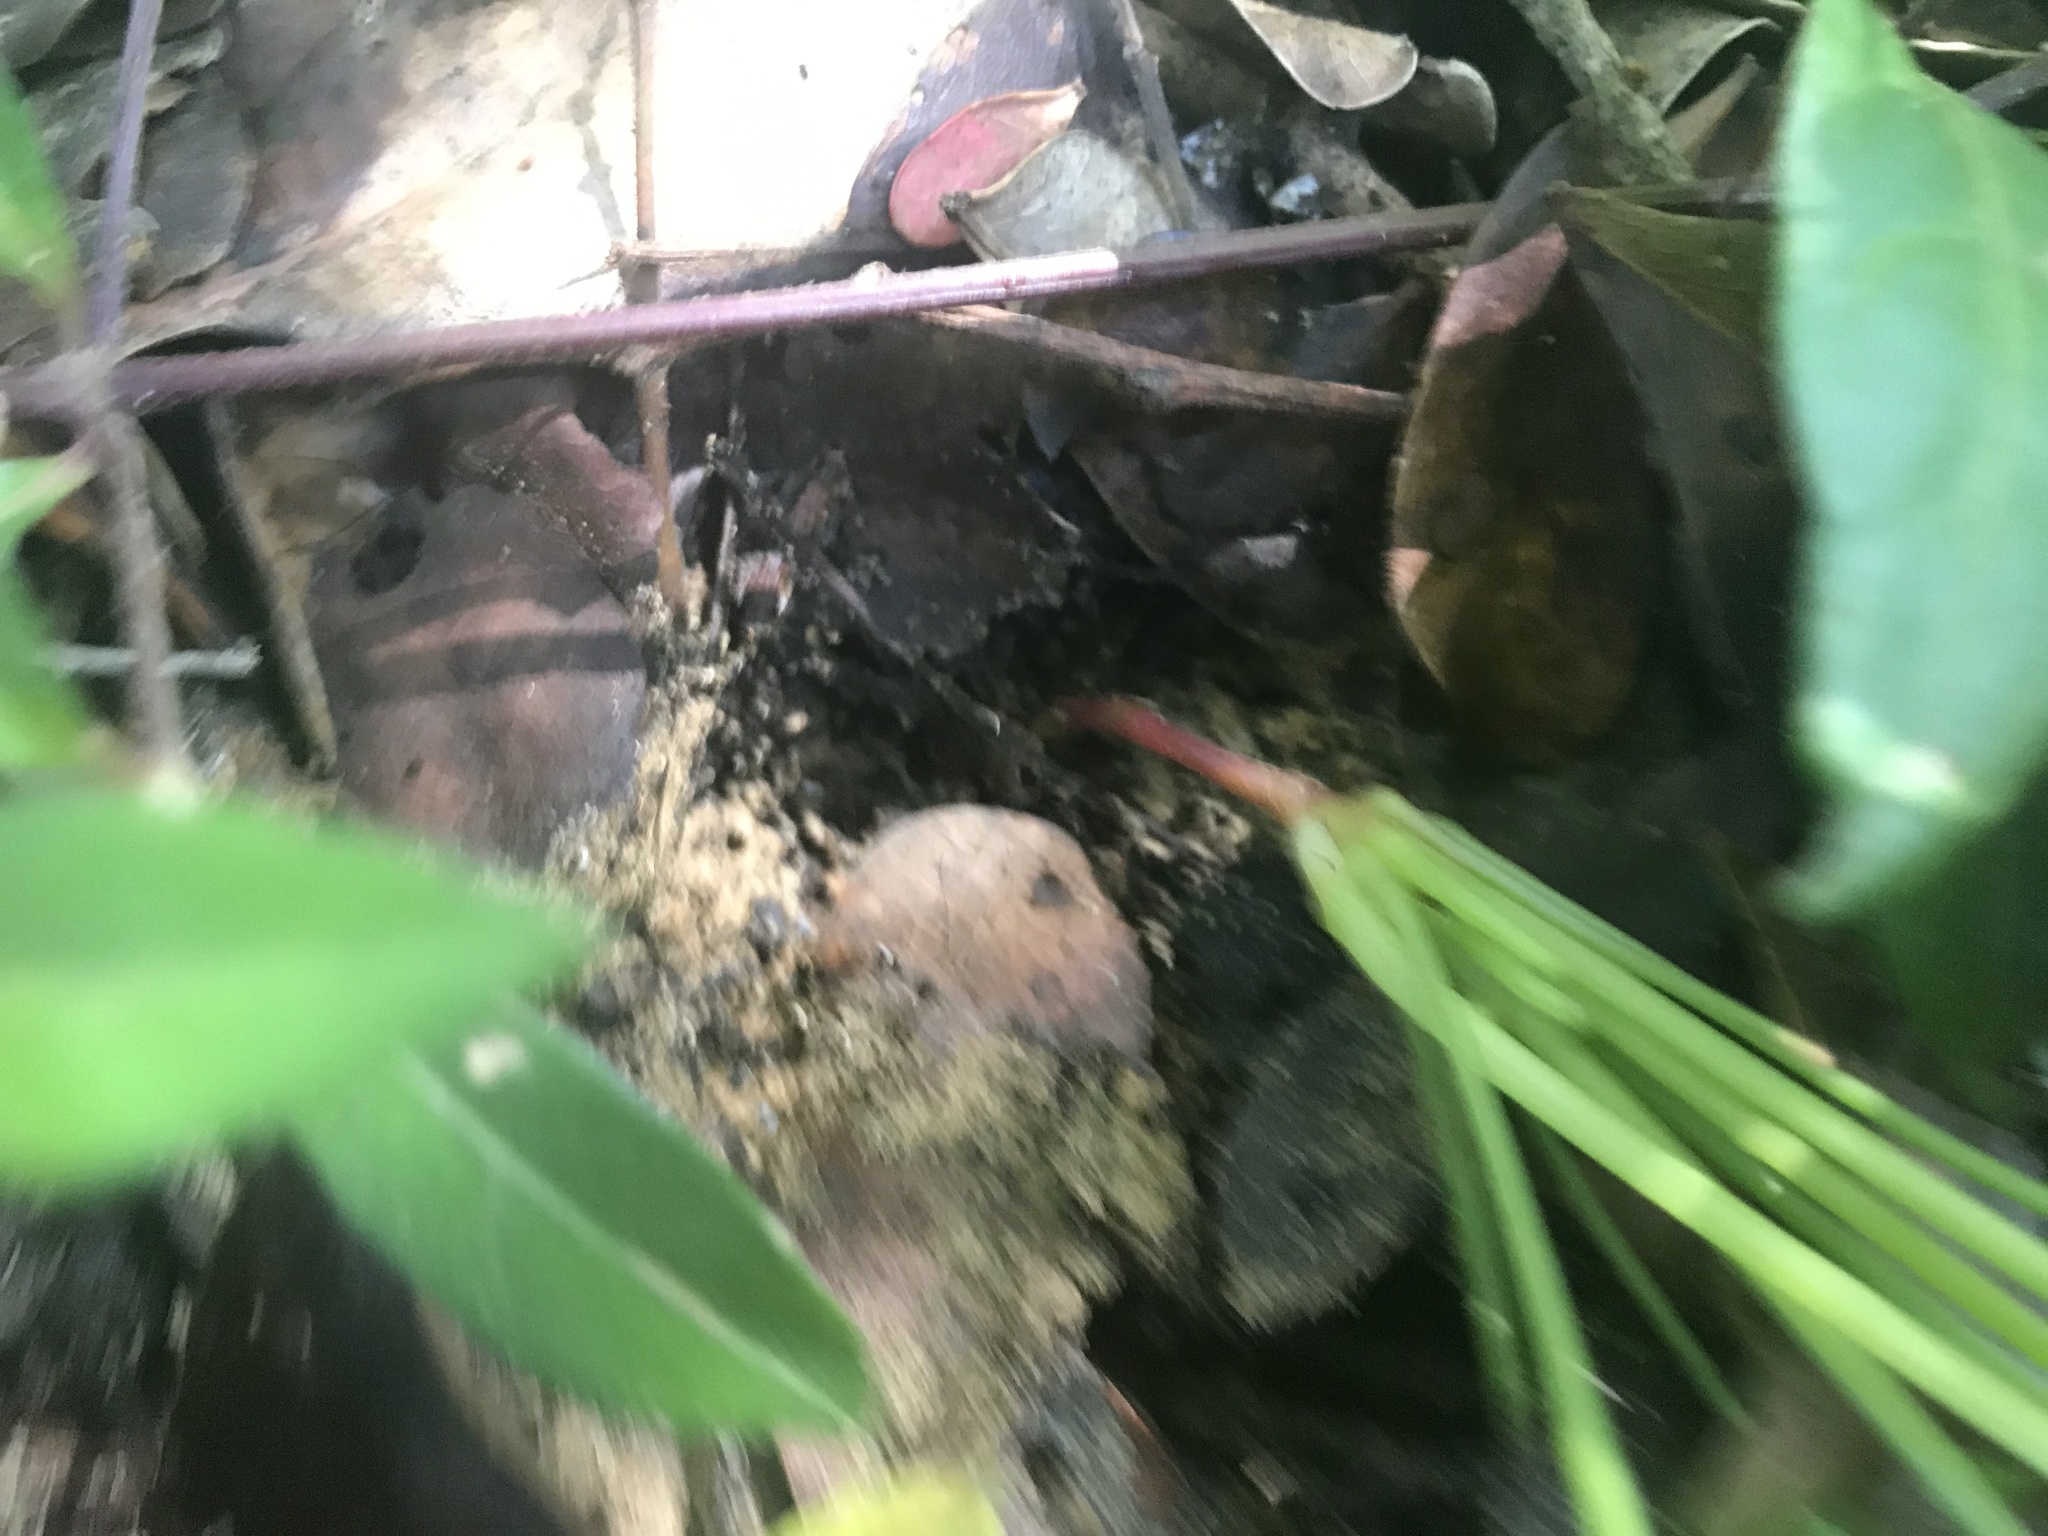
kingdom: Plantae
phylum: Tracheophyta
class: Magnoliopsida
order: Oxalidales
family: Oxalidaceae
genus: Oxalis
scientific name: Oxalis semiloba
